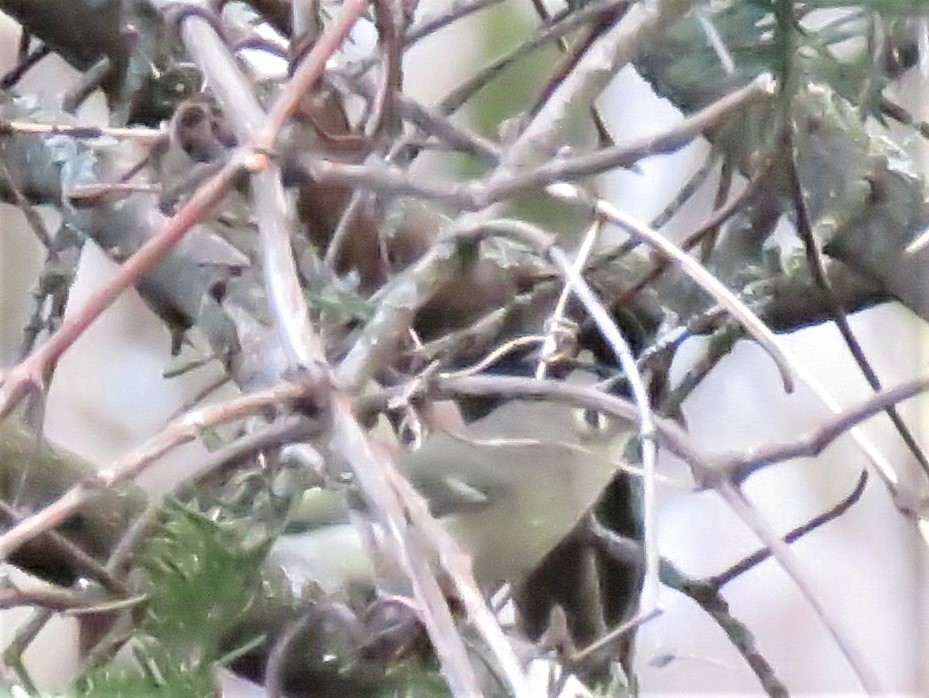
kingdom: Animalia
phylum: Chordata
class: Aves
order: Passeriformes
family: Regulidae
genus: Regulus
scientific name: Regulus calendula
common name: Ruby-crowned kinglet
